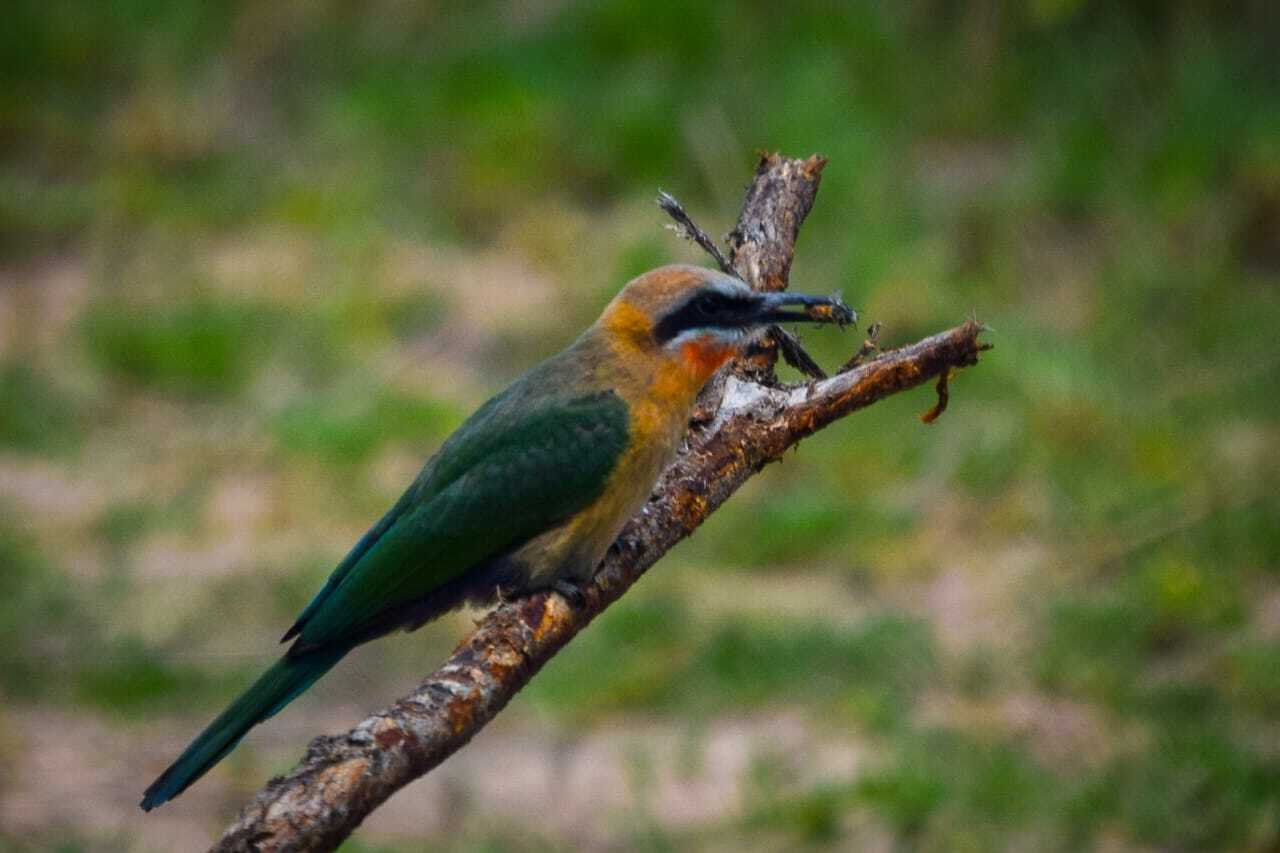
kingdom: Animalia
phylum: Chordata
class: Aves
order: Coraciiformes
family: Meropidae
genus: Merops
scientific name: Merops bullockoides
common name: White-fronted bee-eater
